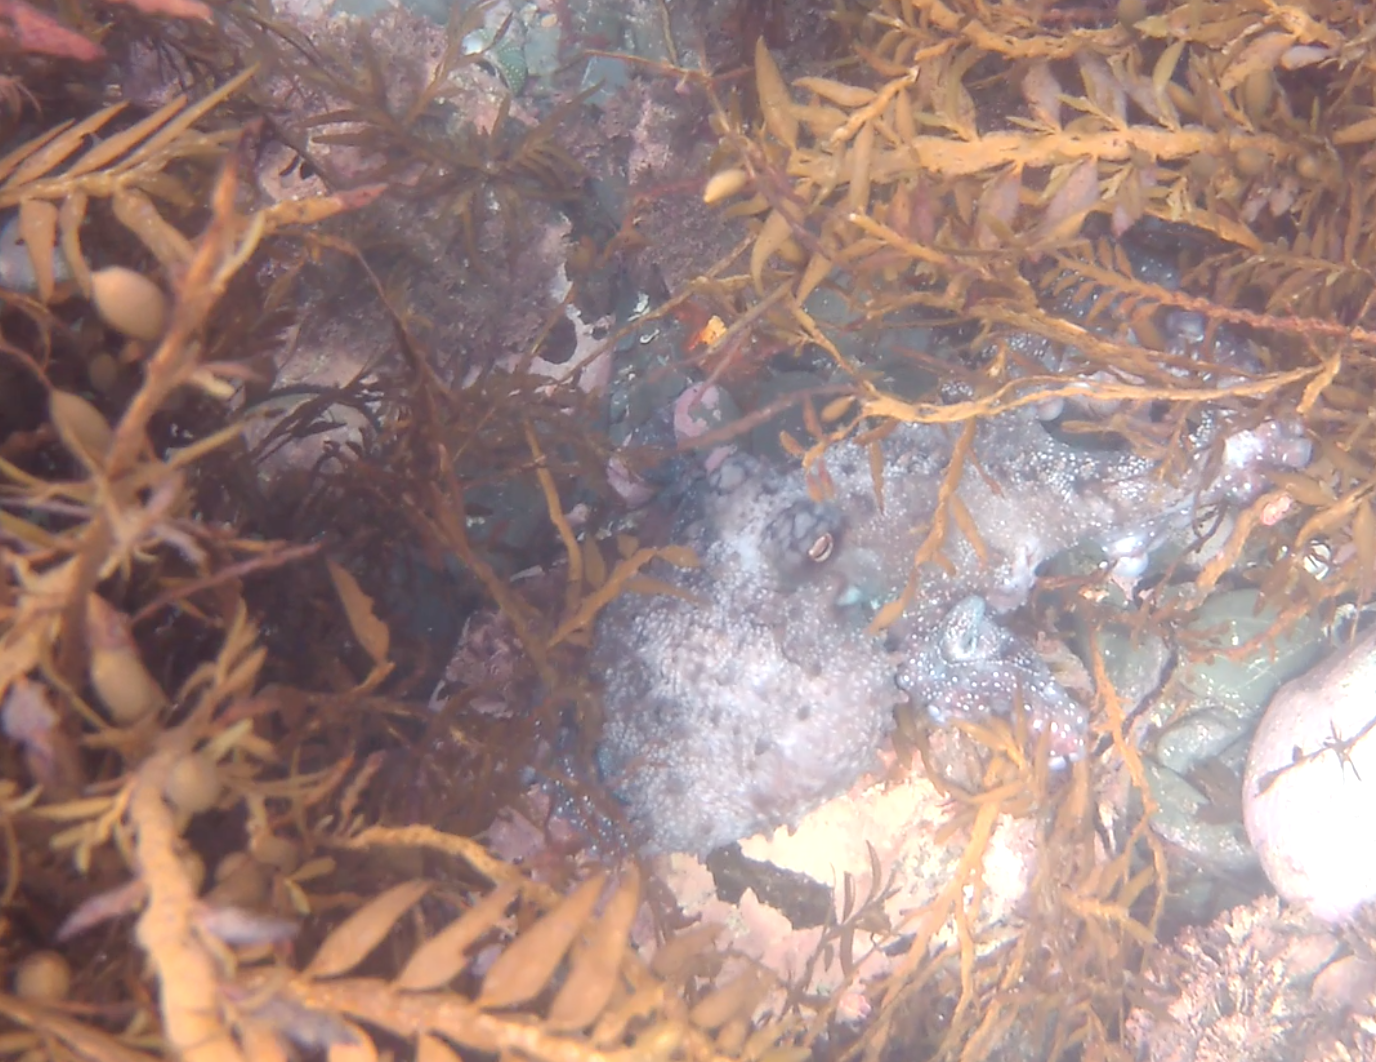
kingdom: Animalia
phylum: Mollusca
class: Cephalopoda
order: Octopoda
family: Octopodidae
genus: Macroctopus
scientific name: Macroctopus maorum
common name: Maori octopus
